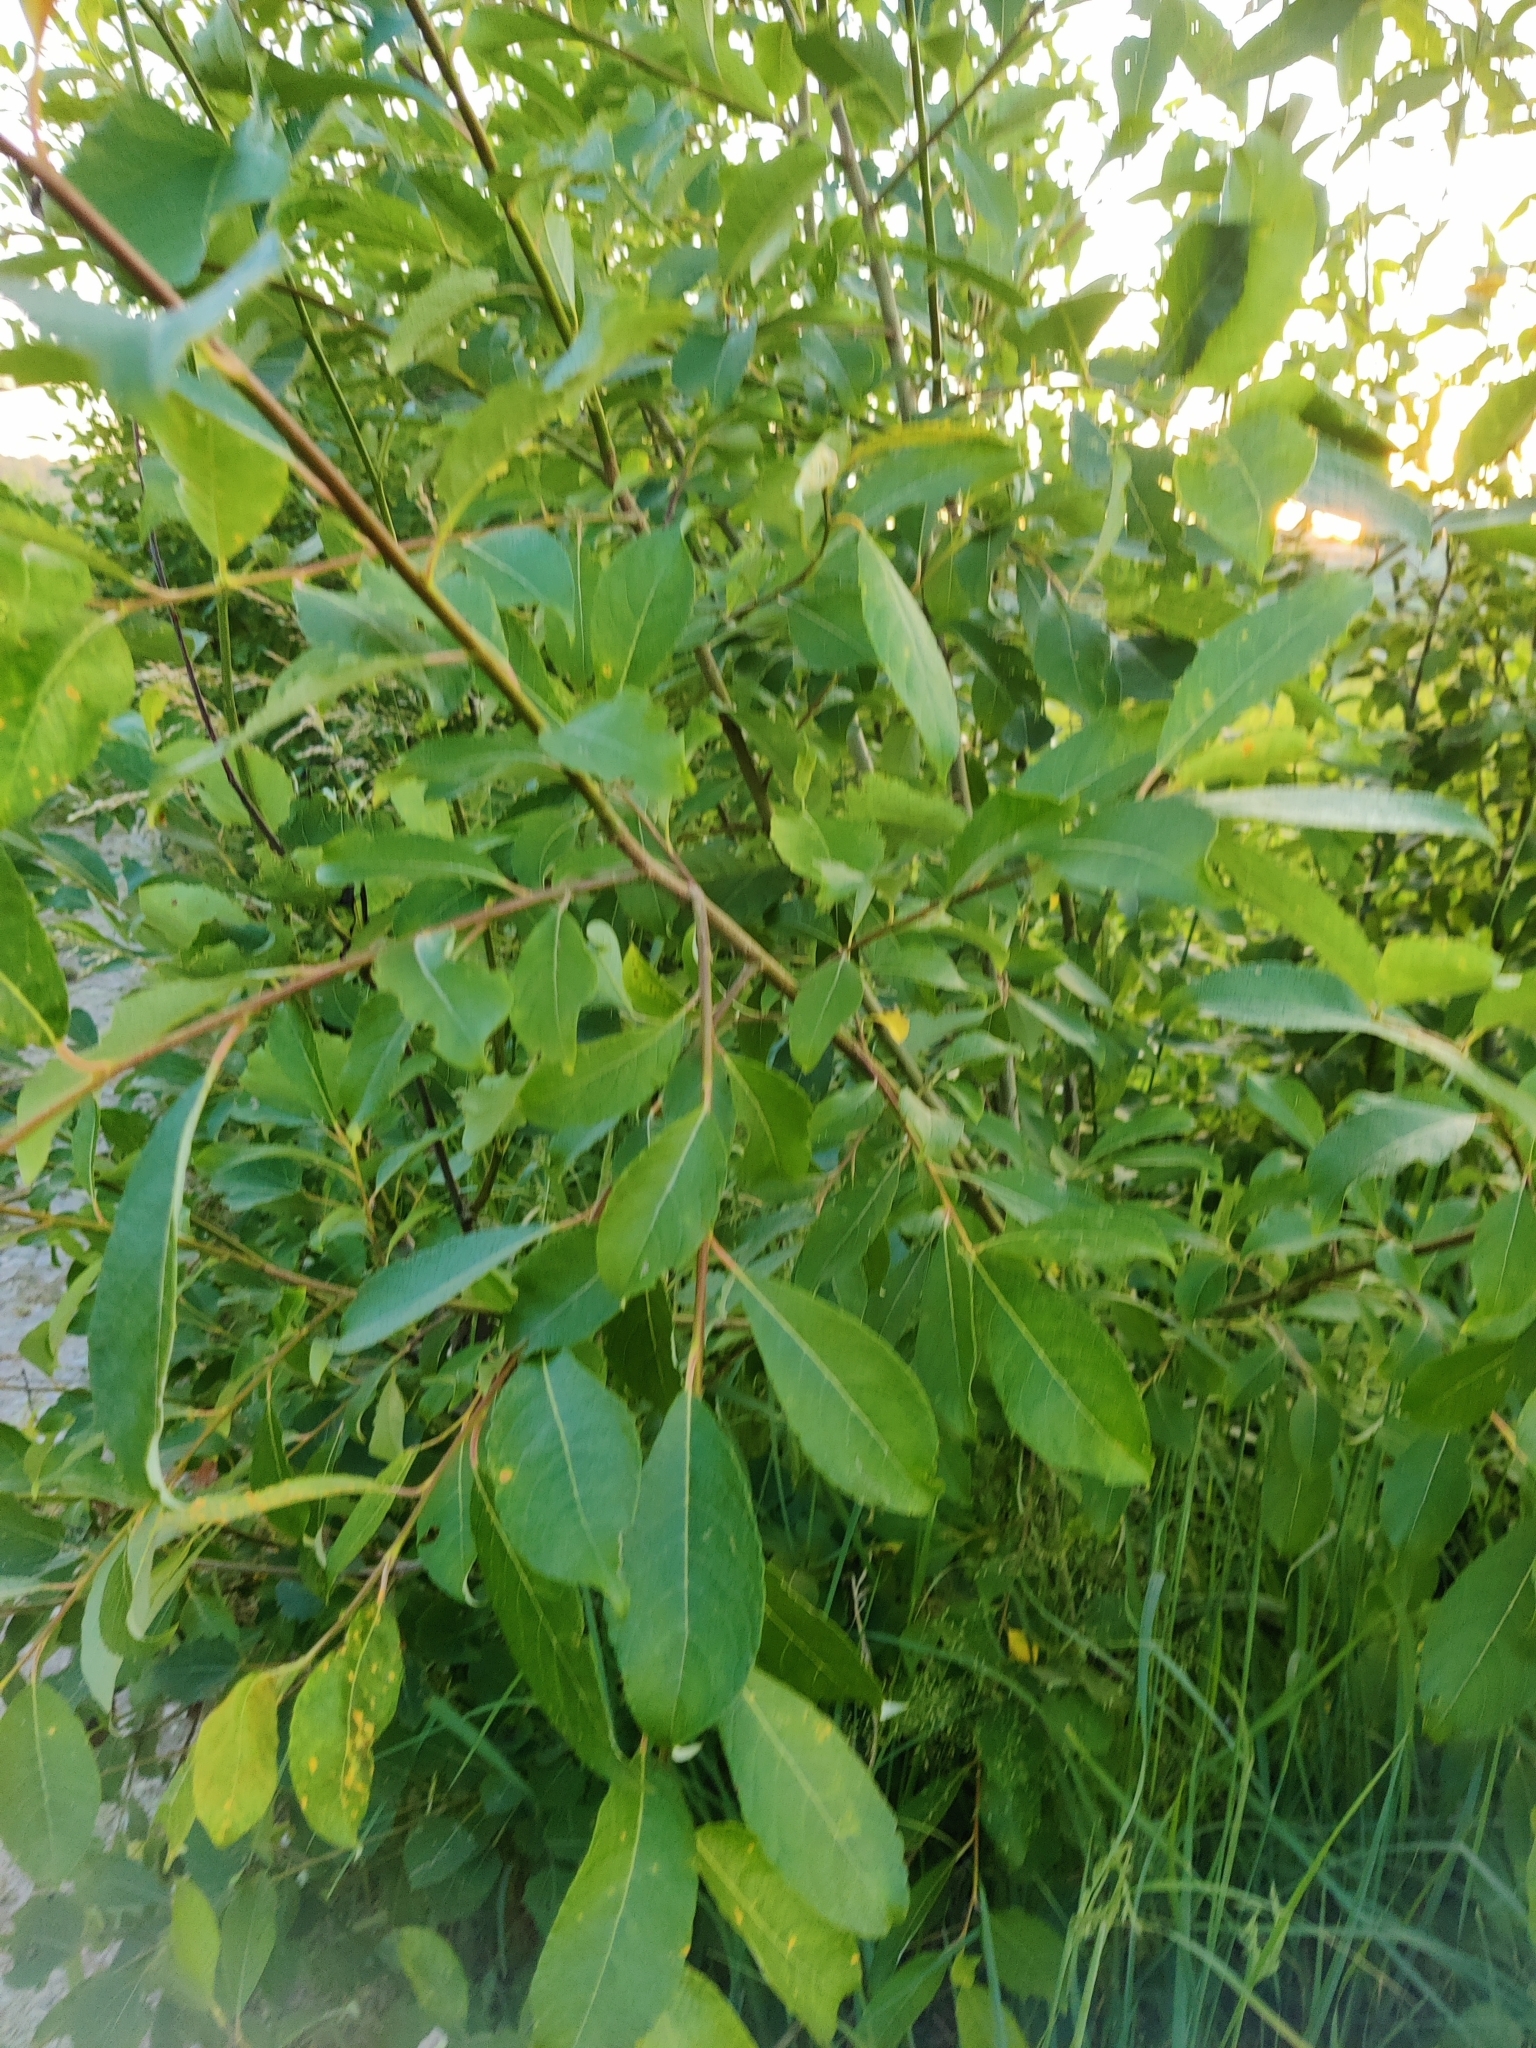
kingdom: Plantae
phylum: Tracheophyta
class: Magnoliopsida
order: Malpighiales
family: Salicaceae
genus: Salix
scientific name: Salix caprea
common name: Goat willow
